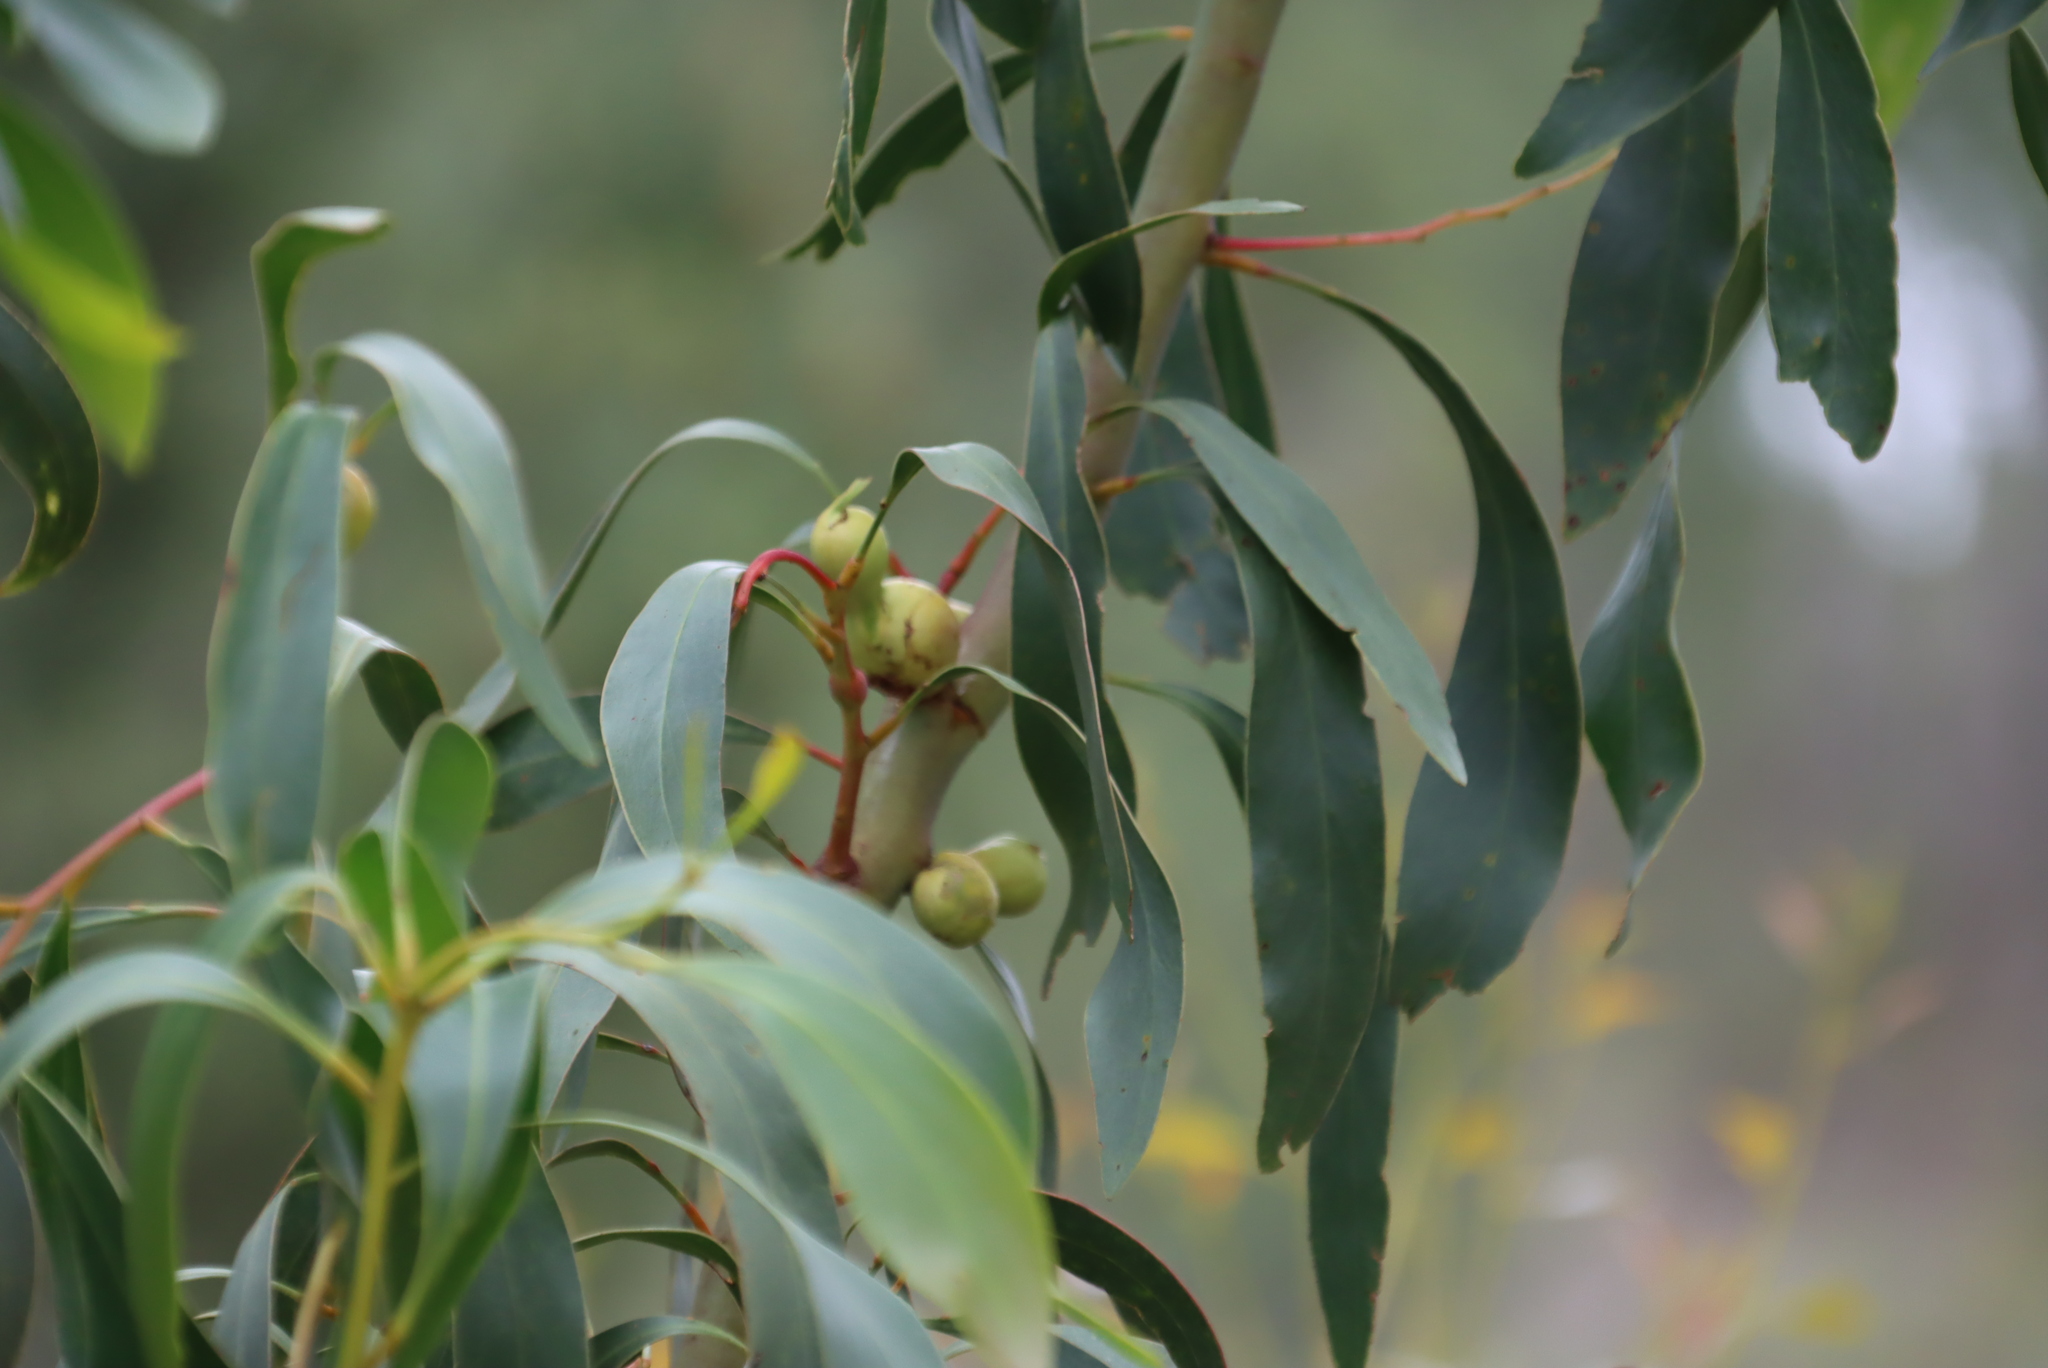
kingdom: Animalia
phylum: Arthropoda
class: Insecta
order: Hymenoptera
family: Pteromalidae
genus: Trichilogaster
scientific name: Trichilogaster signiventris
